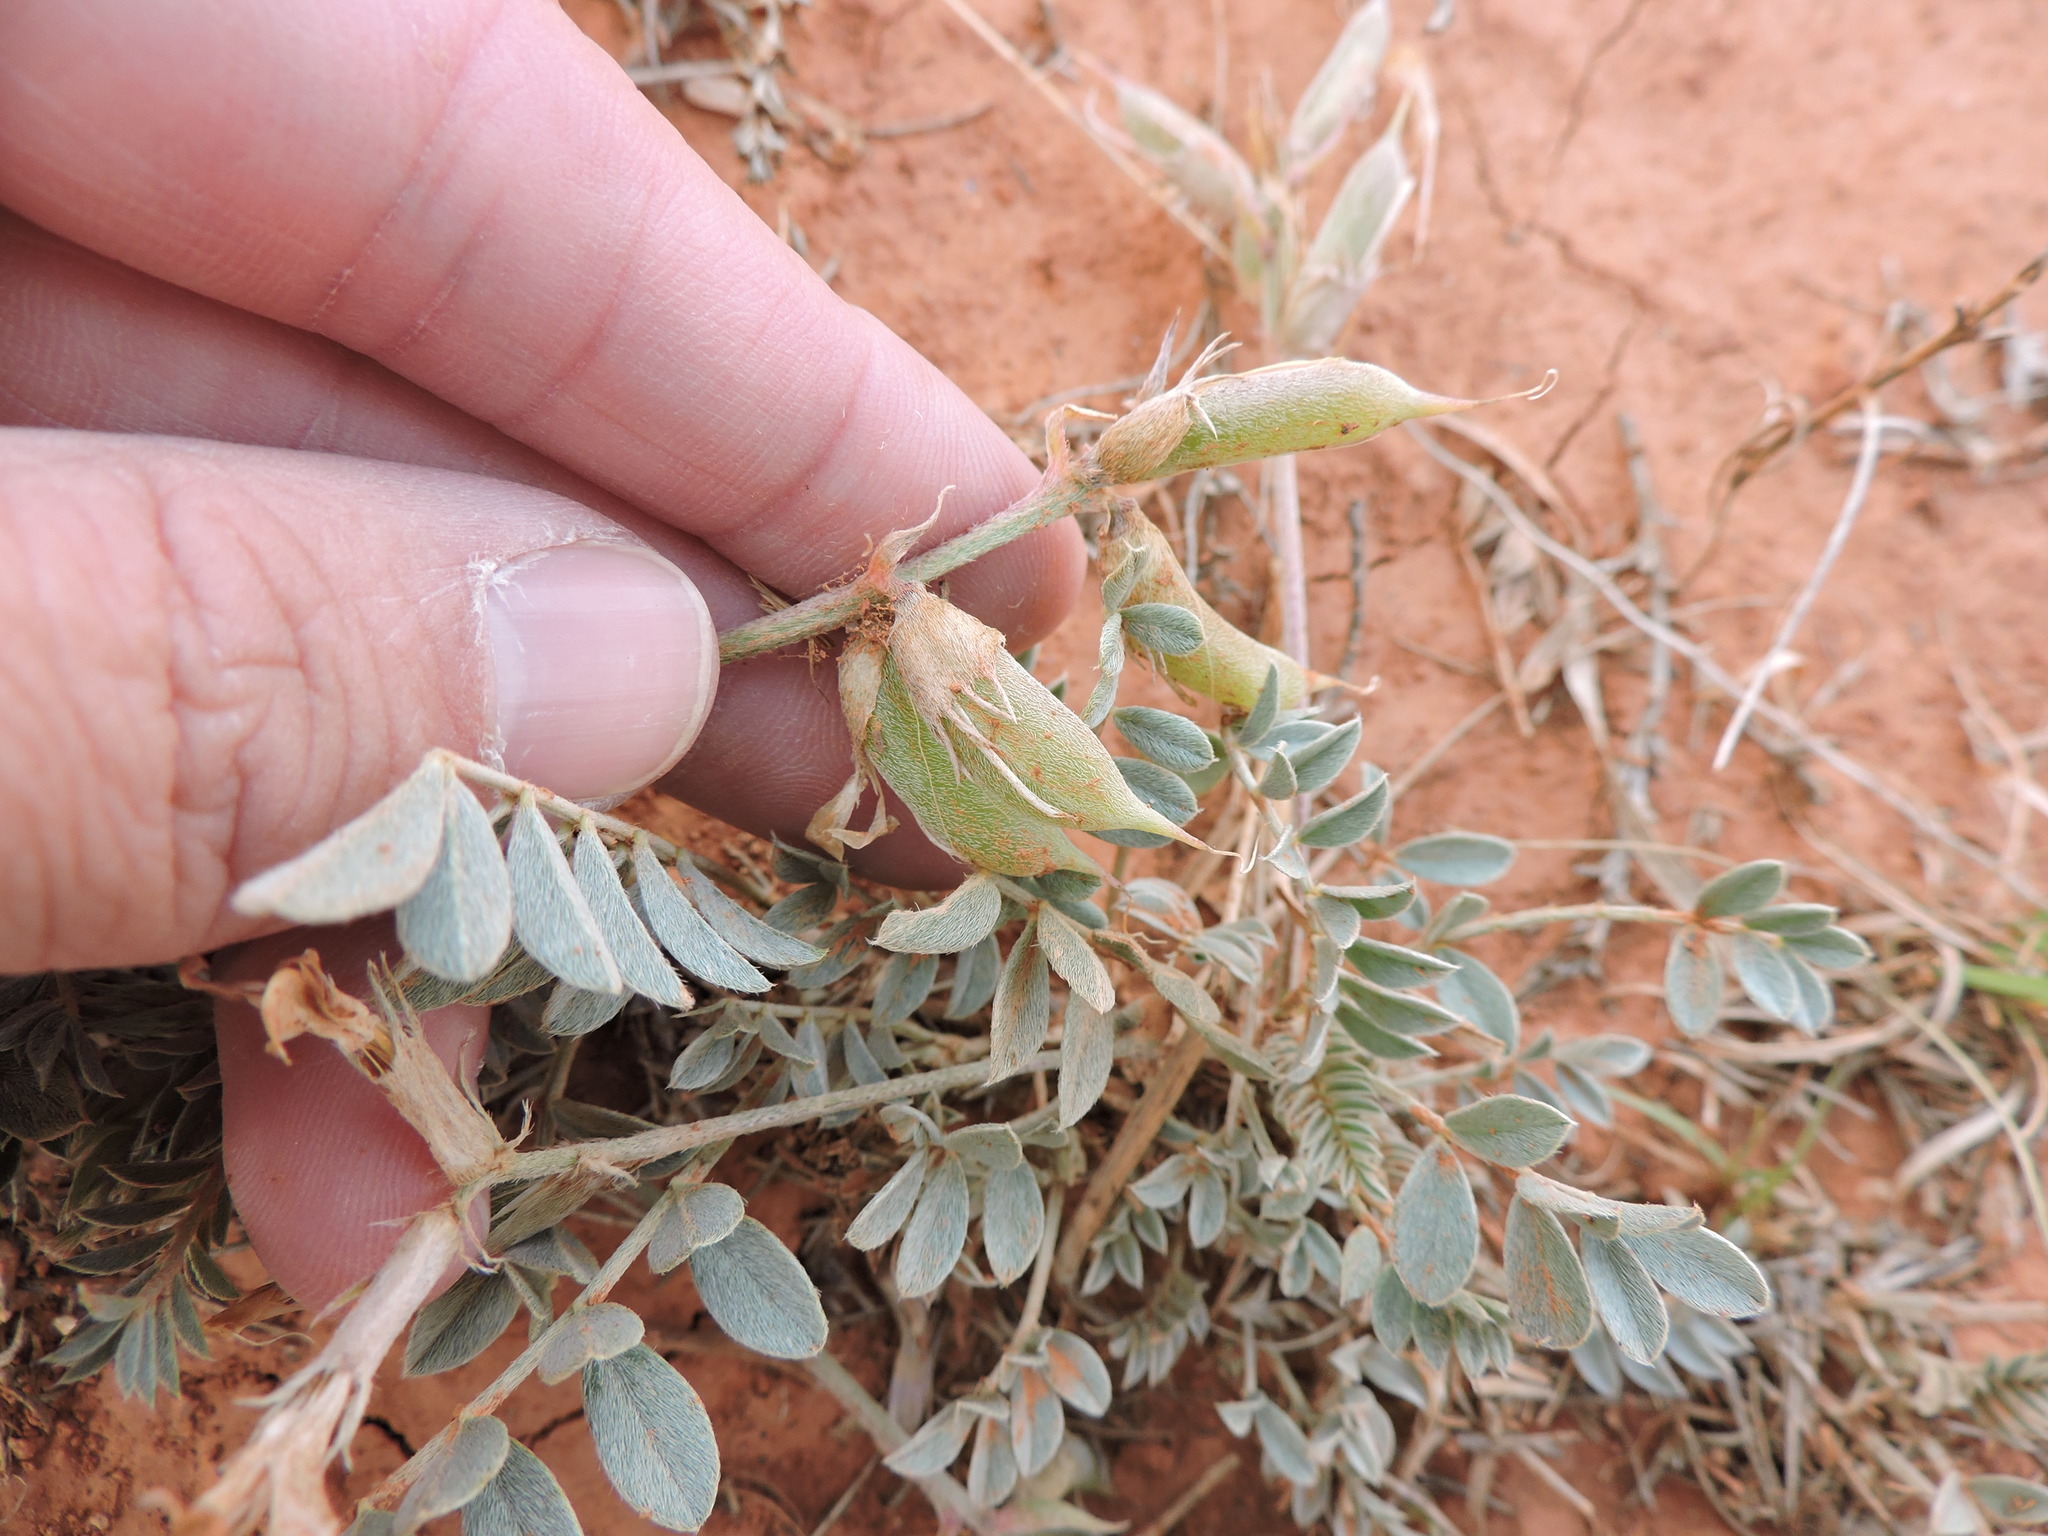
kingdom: Plantae
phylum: Tracheophyta
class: Magnoliopsida
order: Fabales
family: Fabaceae
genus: Astragalus
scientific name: Astragalus missouriensis
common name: Missouri milk-vetch
